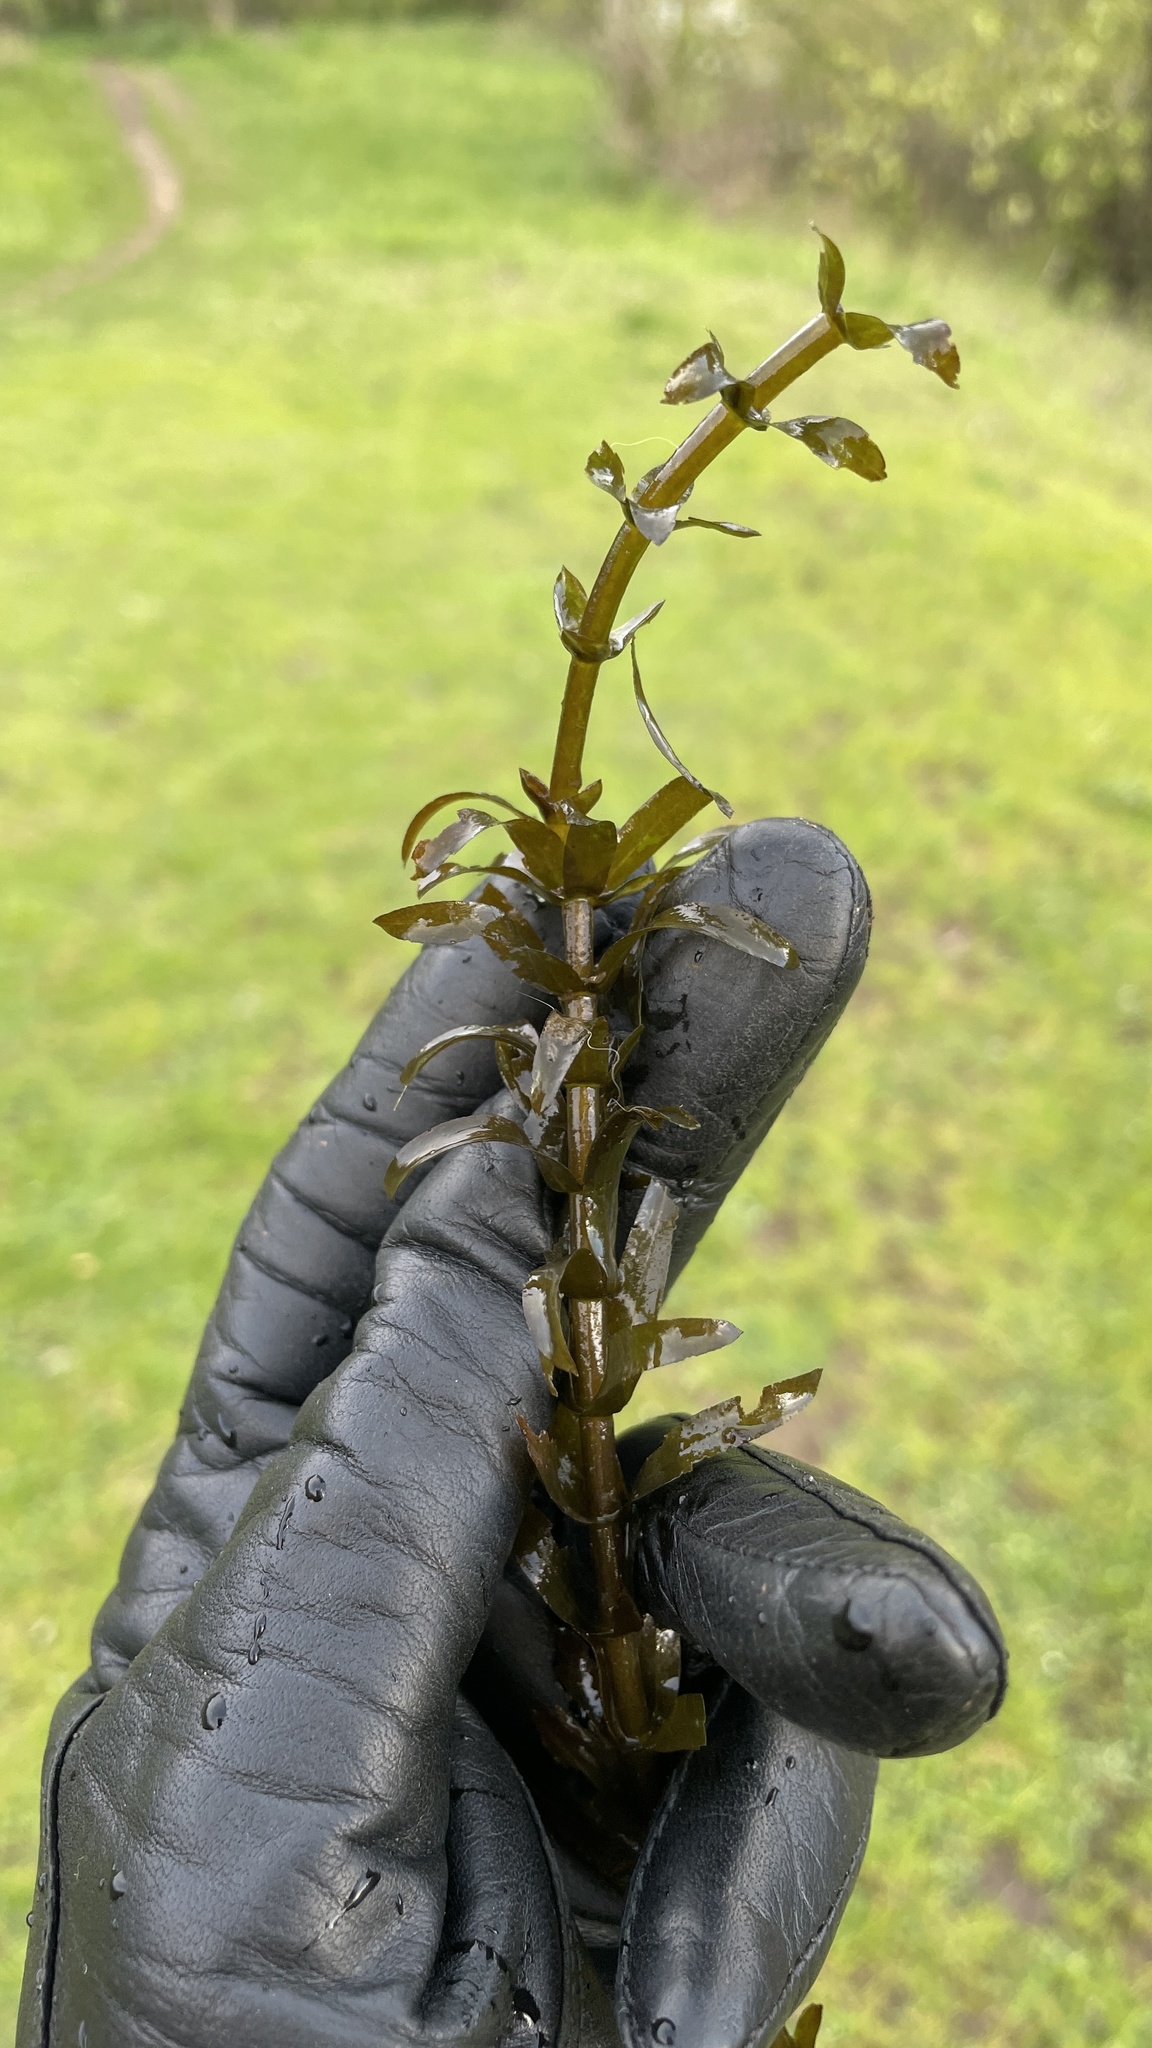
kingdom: Plantae
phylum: Tracheophyta
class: Liliopsida
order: Alismatales
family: Hydrocharitaceae
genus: Elodea
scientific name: Elodea canadensis
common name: Canadian waterweed
